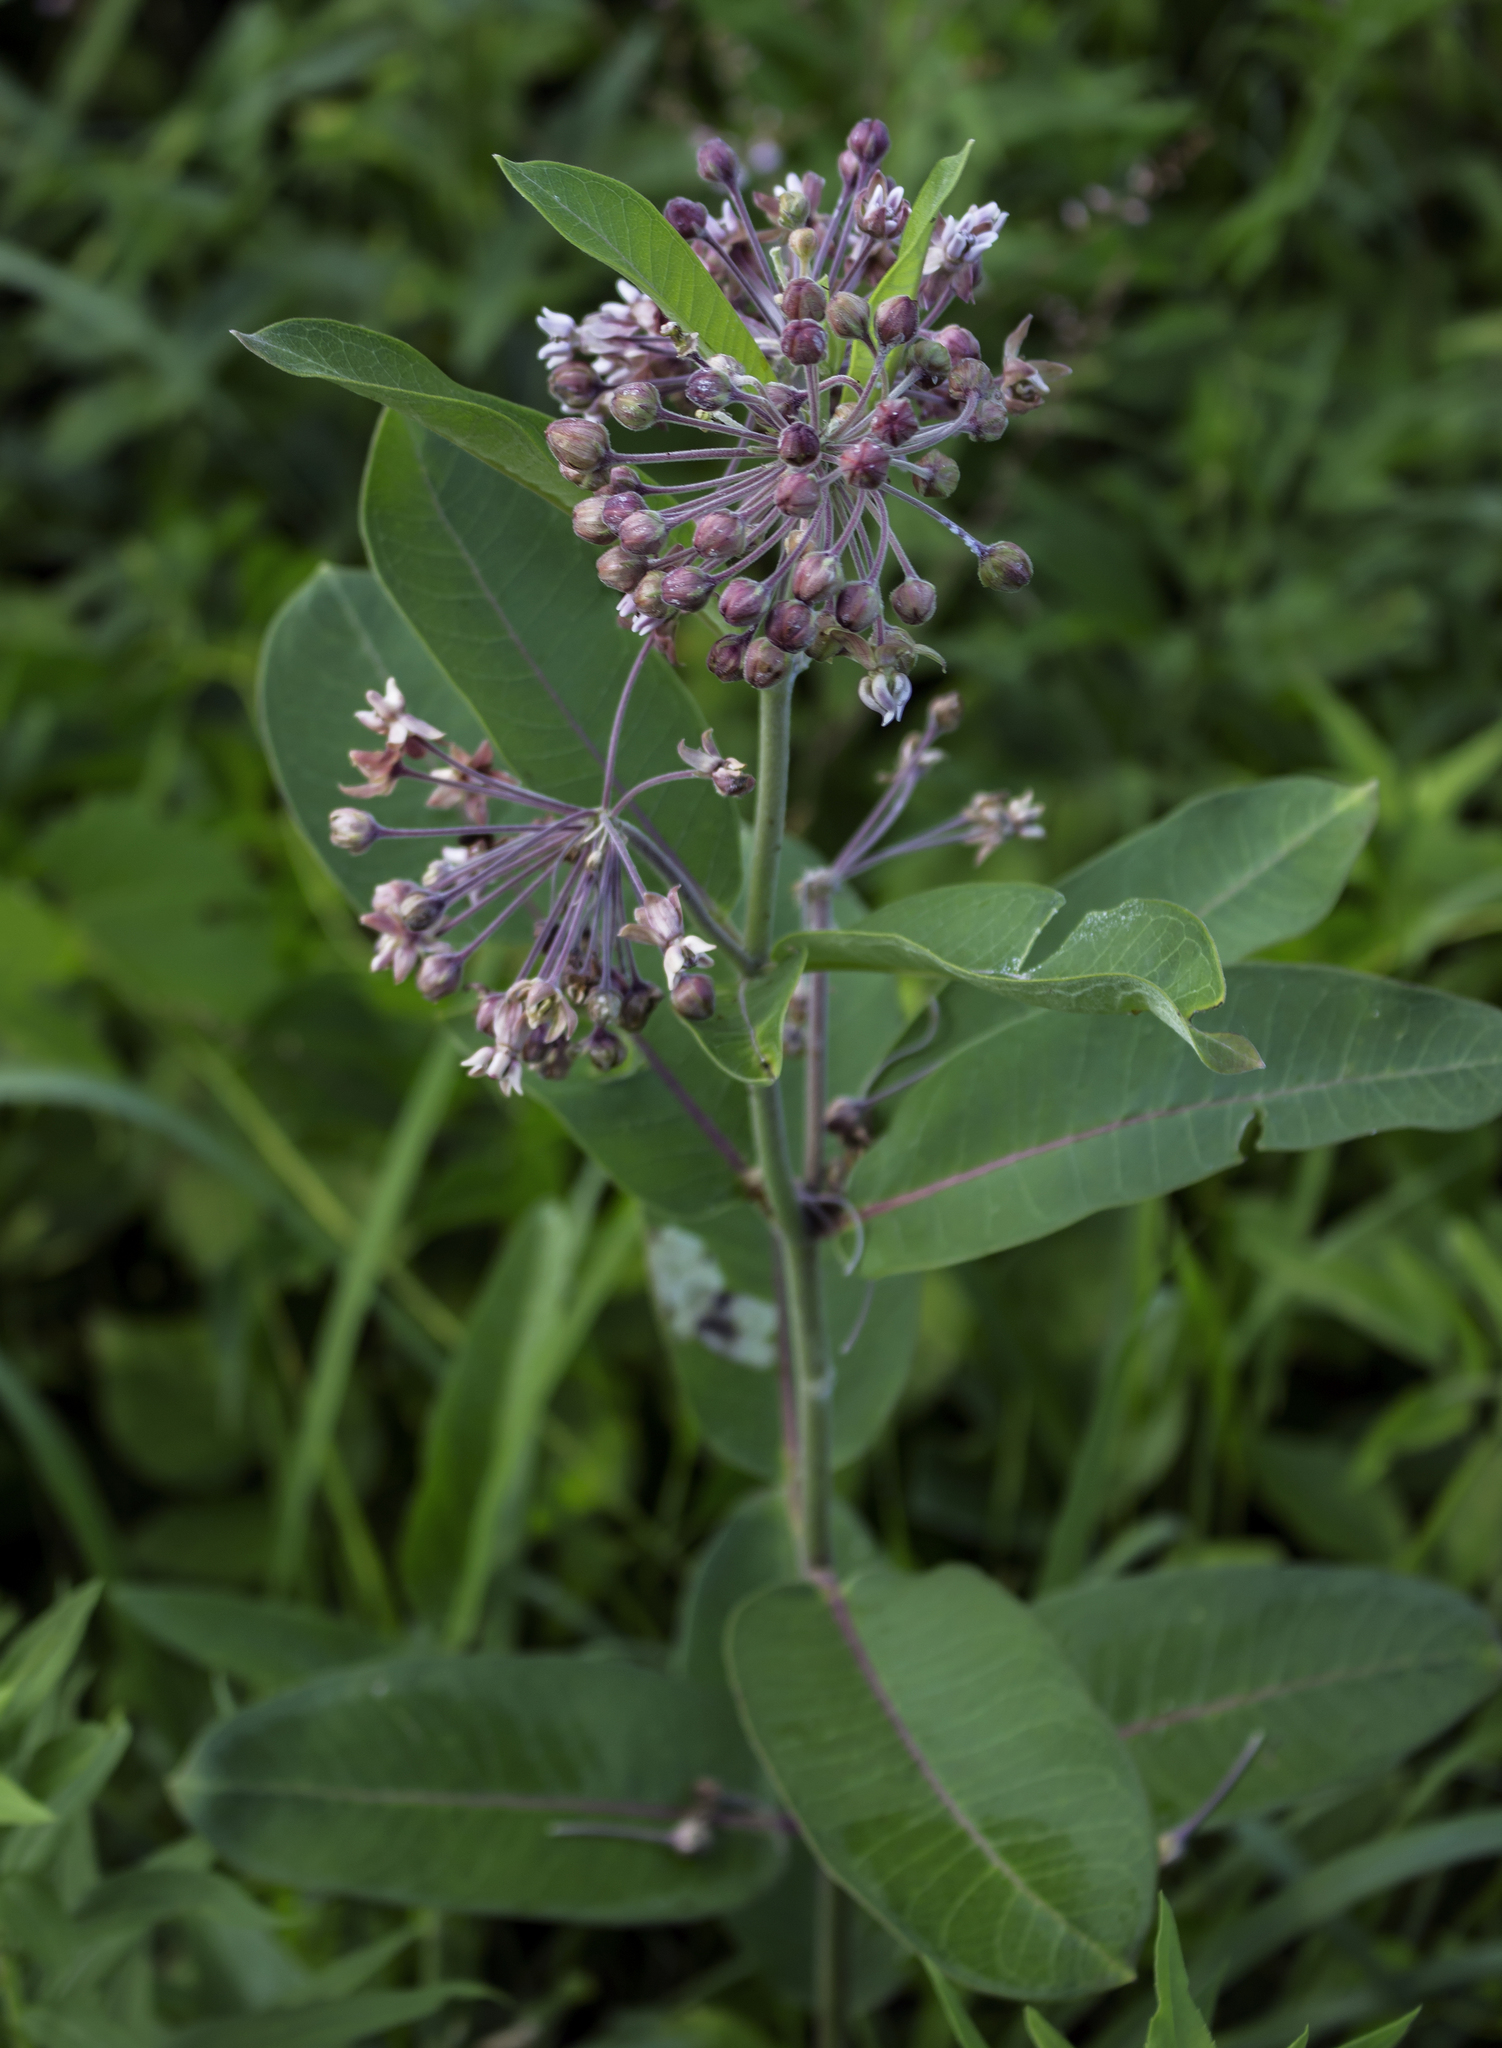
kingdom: Plantae
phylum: Tracheophyta
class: Magnoliopsida
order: Gentianales
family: Apocynaceae
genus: Asclepias
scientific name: Asclepias syriaca
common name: Common milkweed
